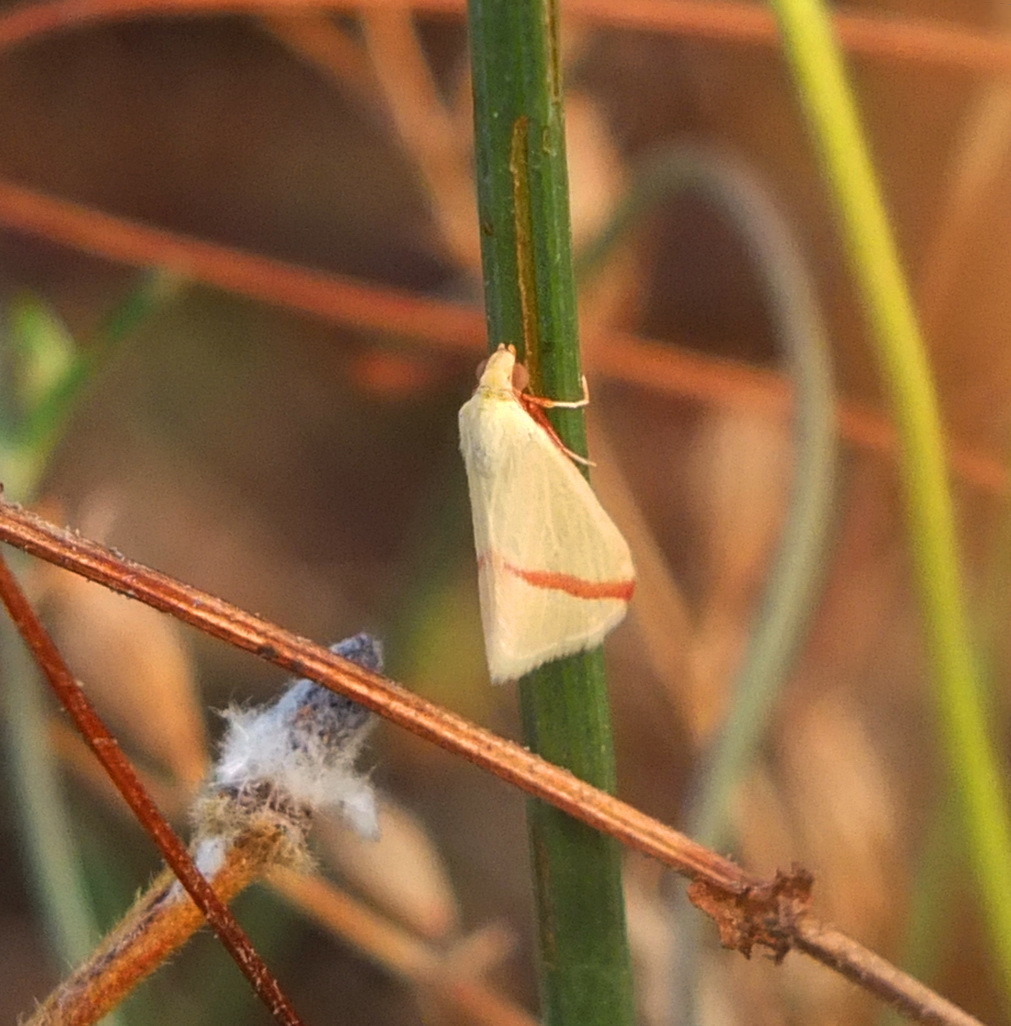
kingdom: Animalia
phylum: Arthropoda
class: Insecta
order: Lepidoptera
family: Geometridae
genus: Rhodometra
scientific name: Rhodometra sacraria
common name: Vestal
